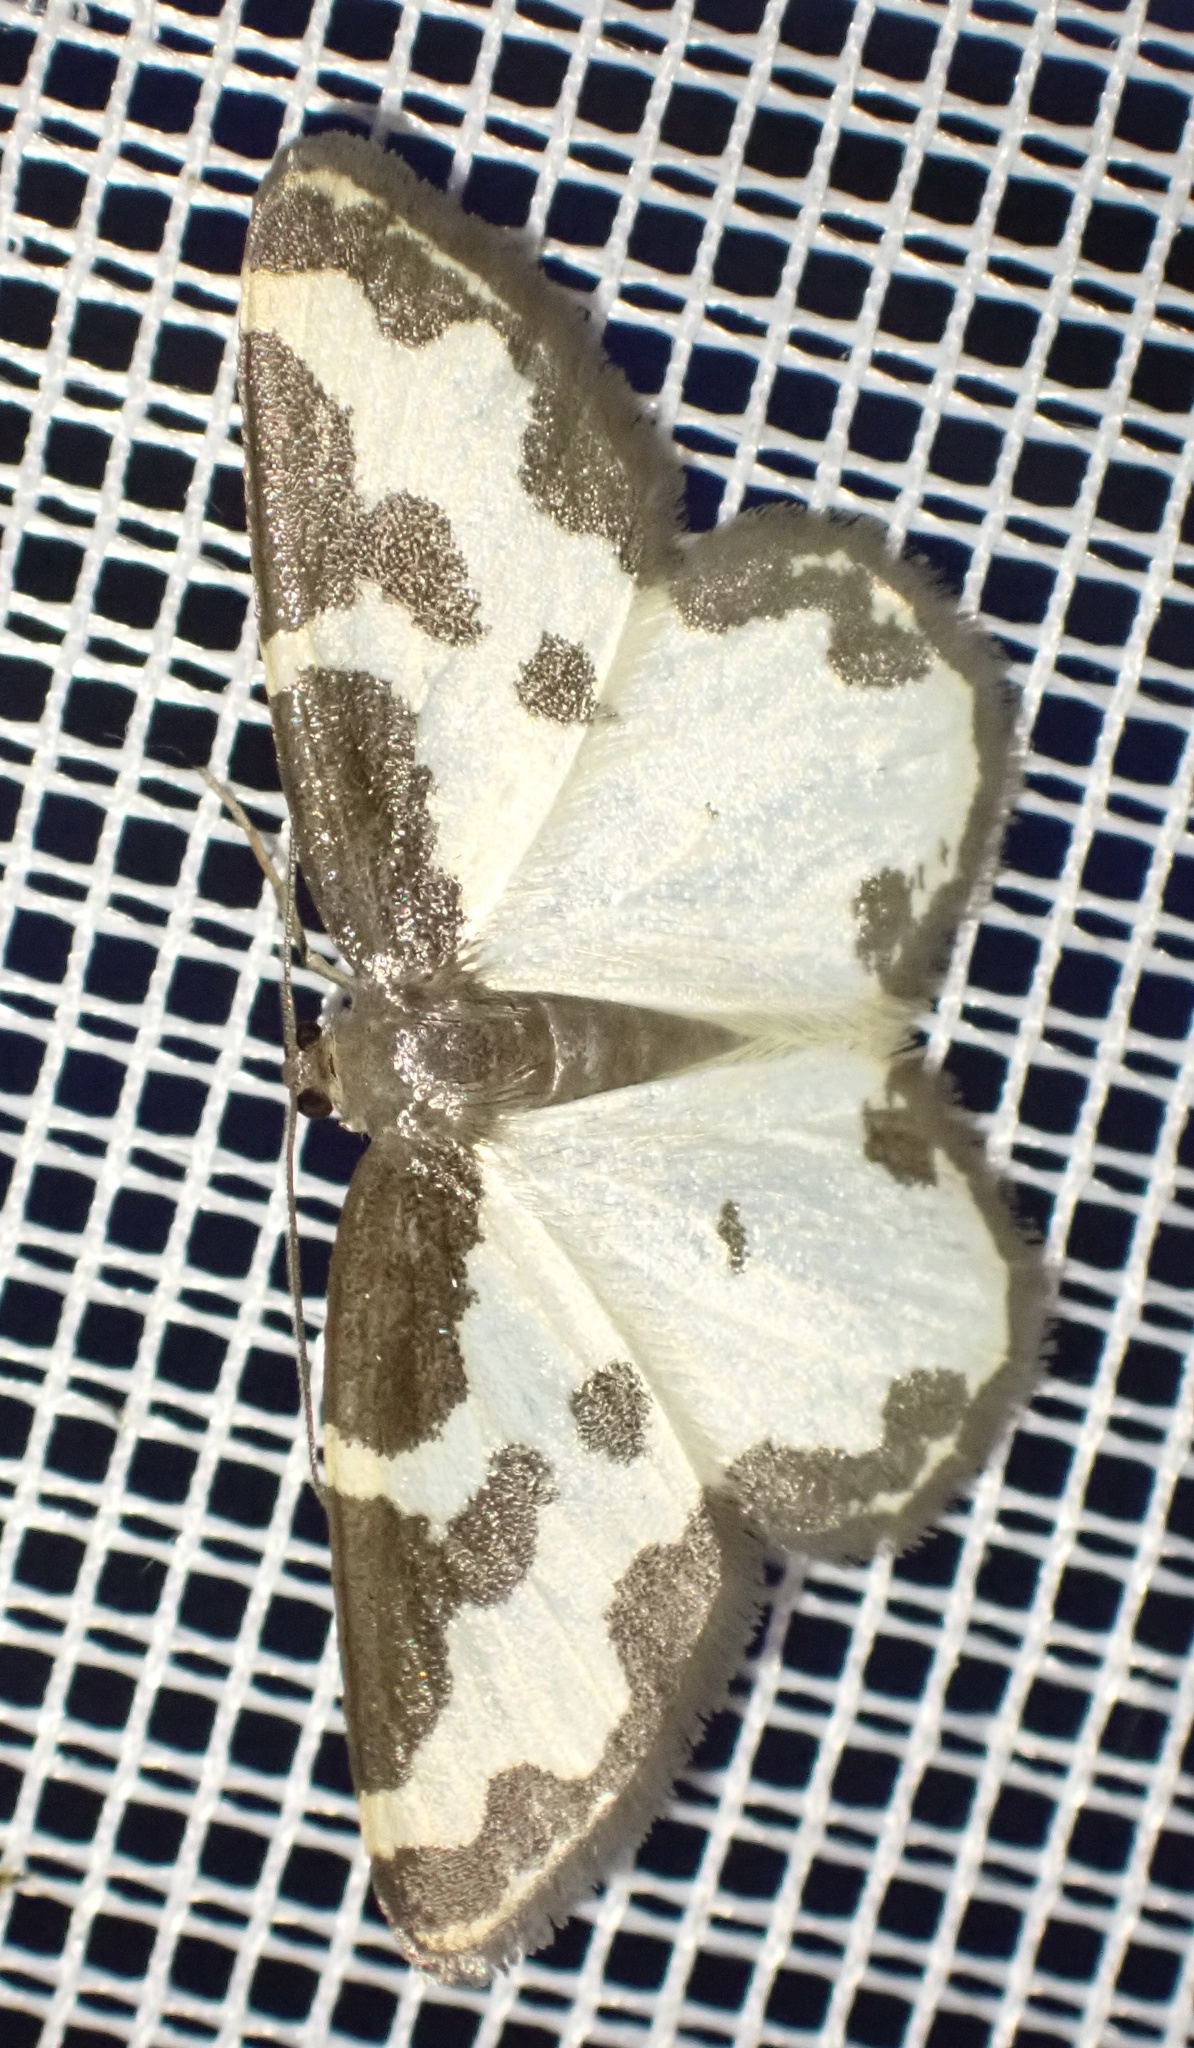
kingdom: Animalia
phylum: Arthropoda
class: Insecta
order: Lepidoptera
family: Geometridae
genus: Lomaspilis
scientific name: Lomaspilis marginata
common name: Clouded border
